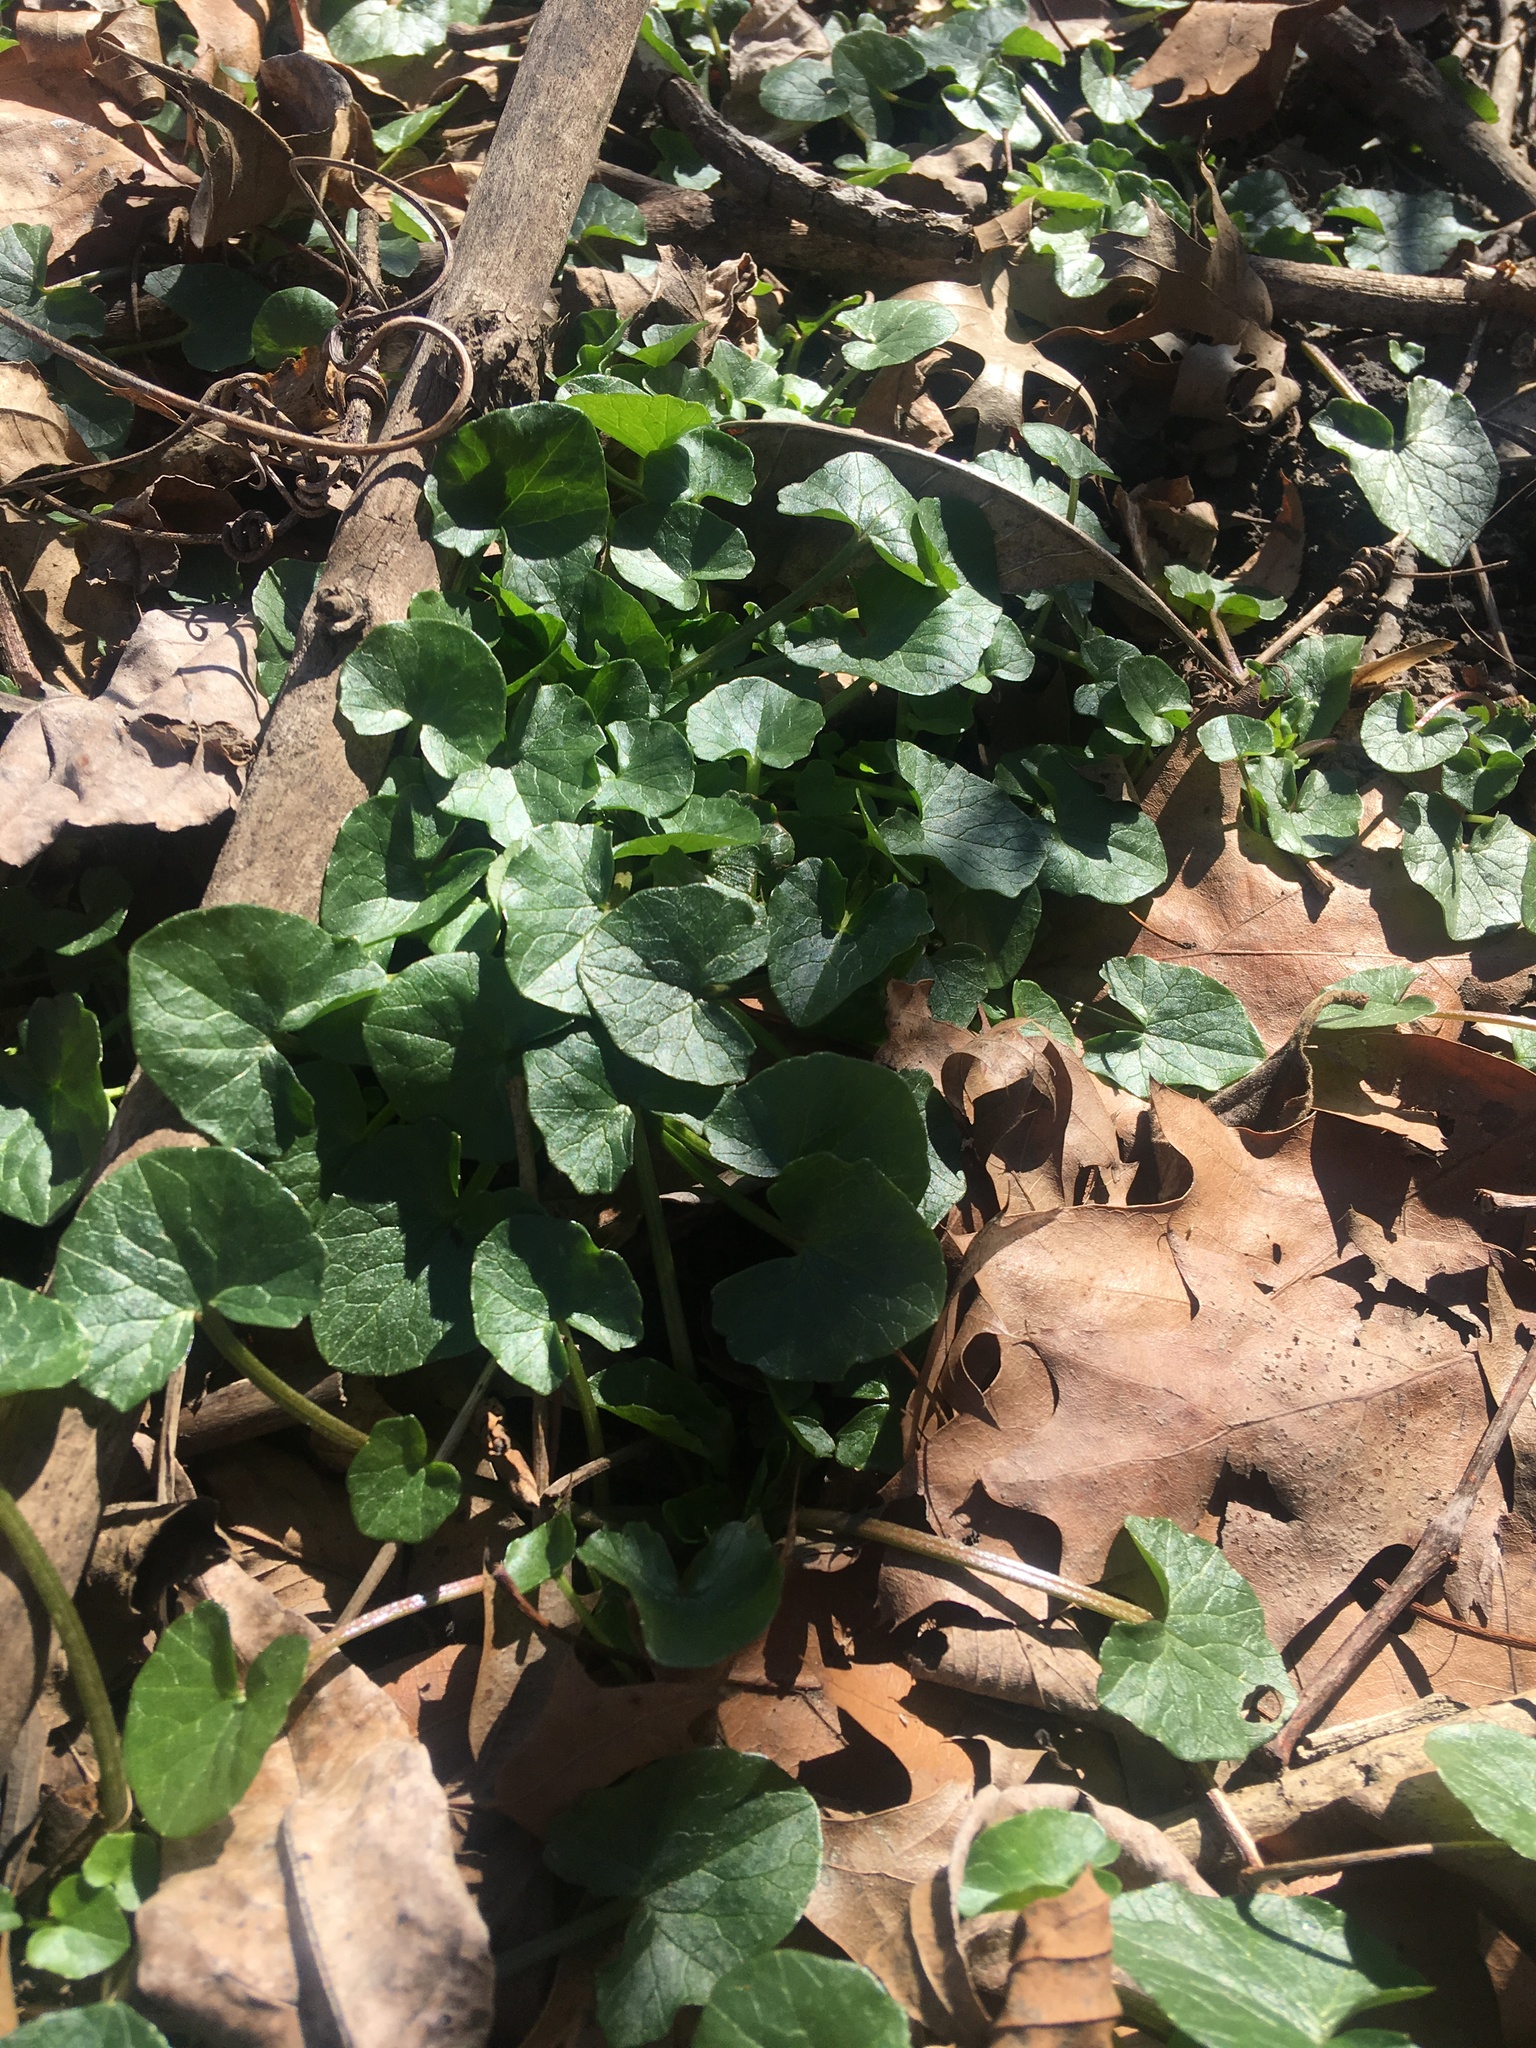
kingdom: Plantae
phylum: Tracheophyta
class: Magnoliopsida
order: Ranunculales
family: Ranunculaceae
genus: Ficaria
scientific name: Ficaria verna
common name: Lesser celandine
